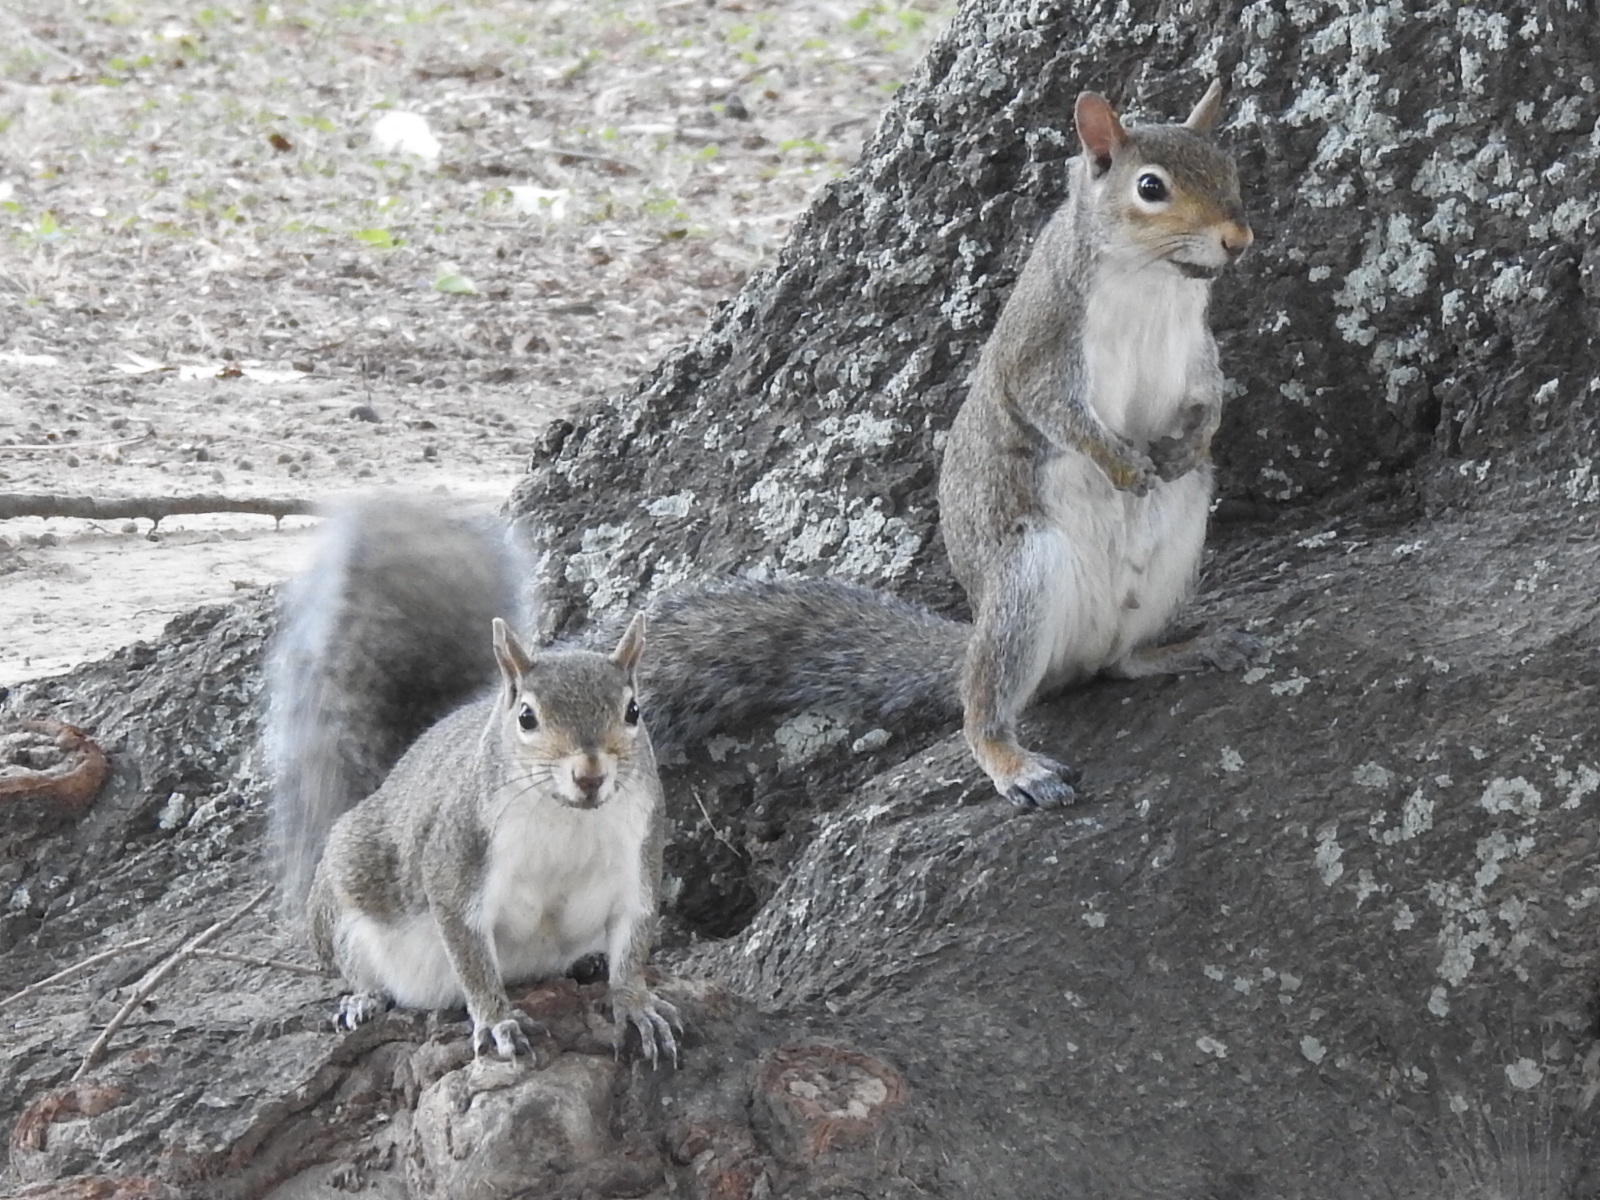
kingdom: Animalia
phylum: Chordata
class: Mammalia
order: Rodentia
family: Sciuridae
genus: Sciurus
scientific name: Sciurus carolinensis
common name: Eastern gray squirrel
